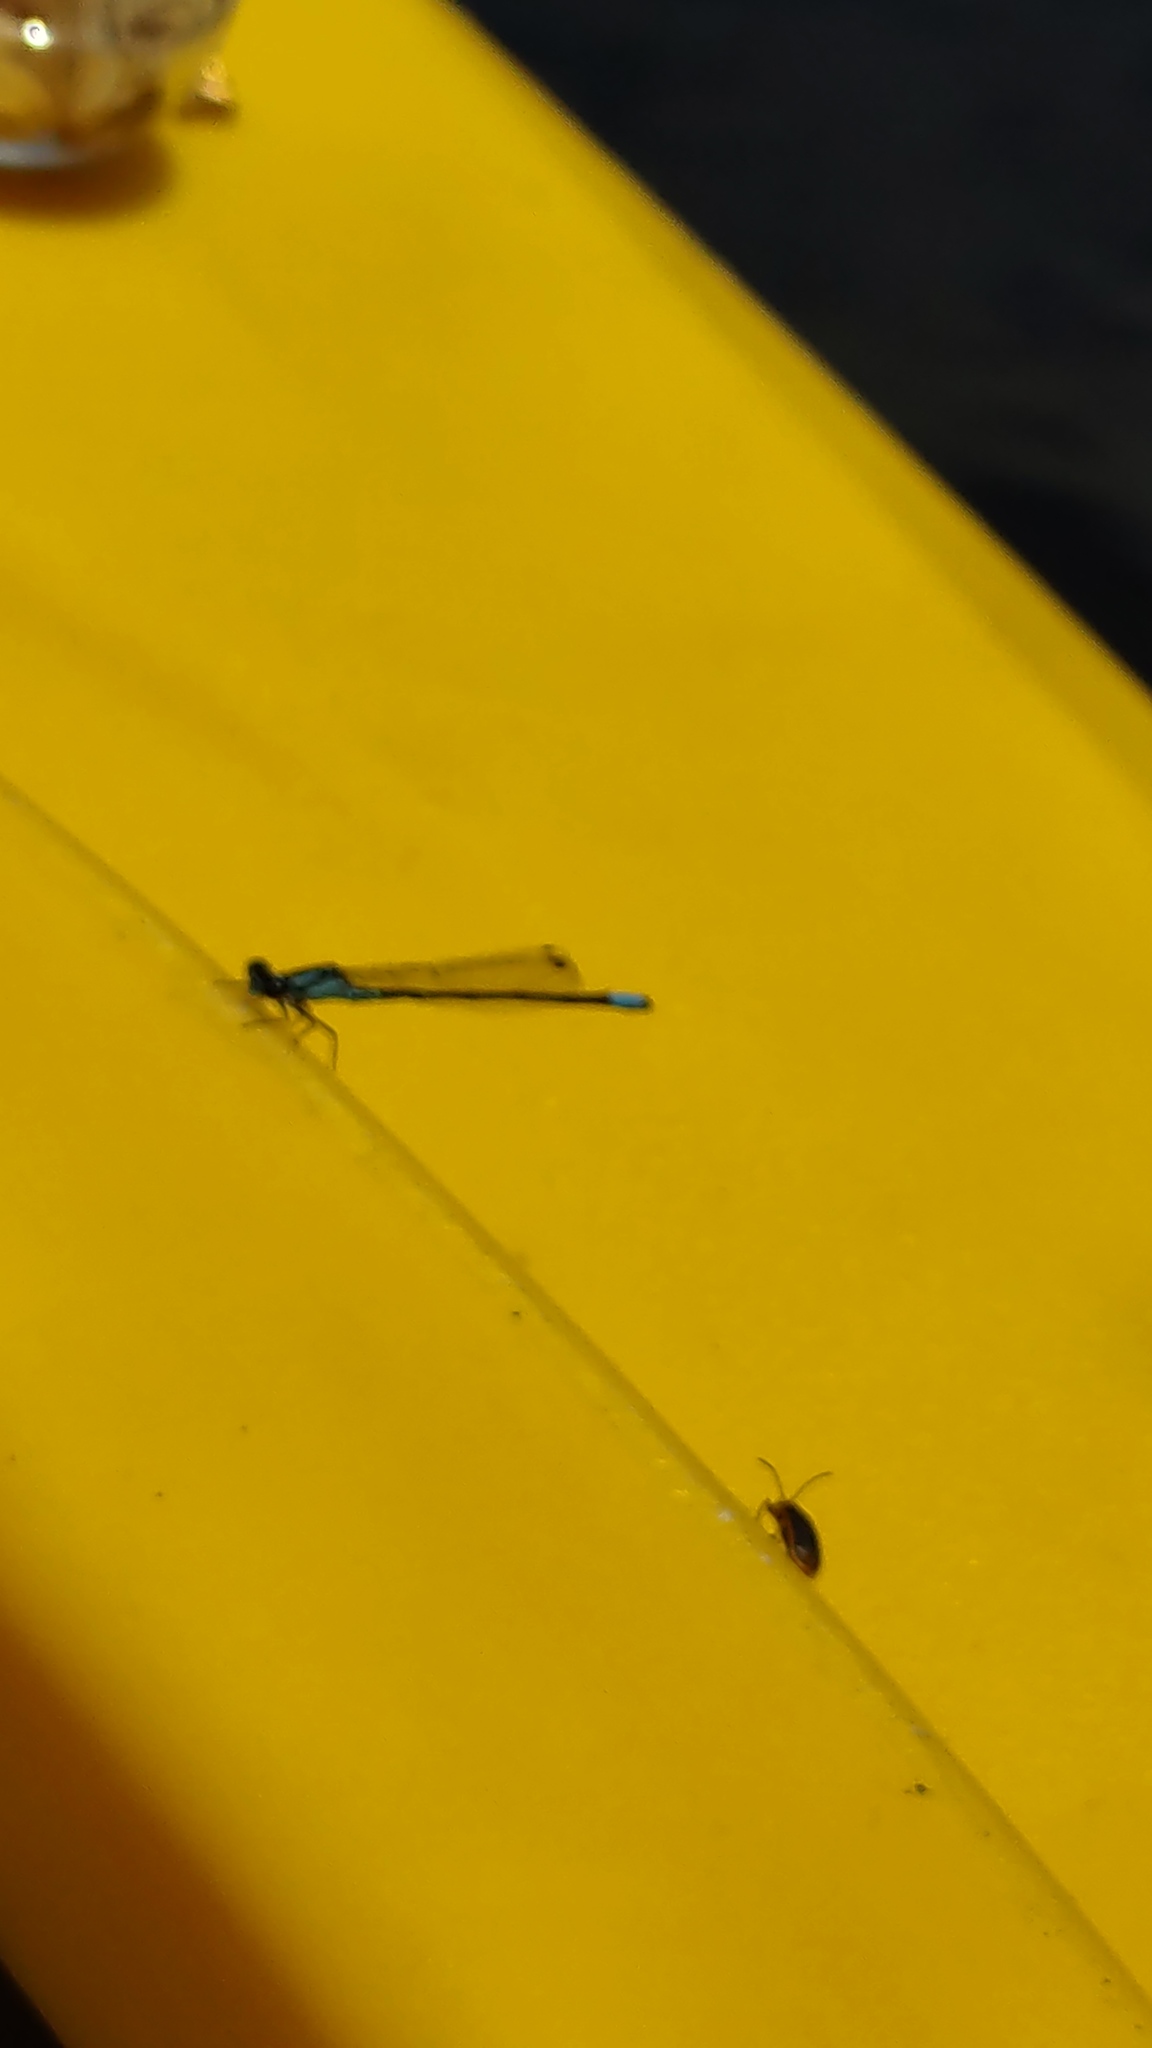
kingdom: Animalia
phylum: Arthropoda
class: Insecta
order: Odonata
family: Coenagrionidae
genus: Enallagma
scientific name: Enallagma geminatum
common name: Skimming bluet
